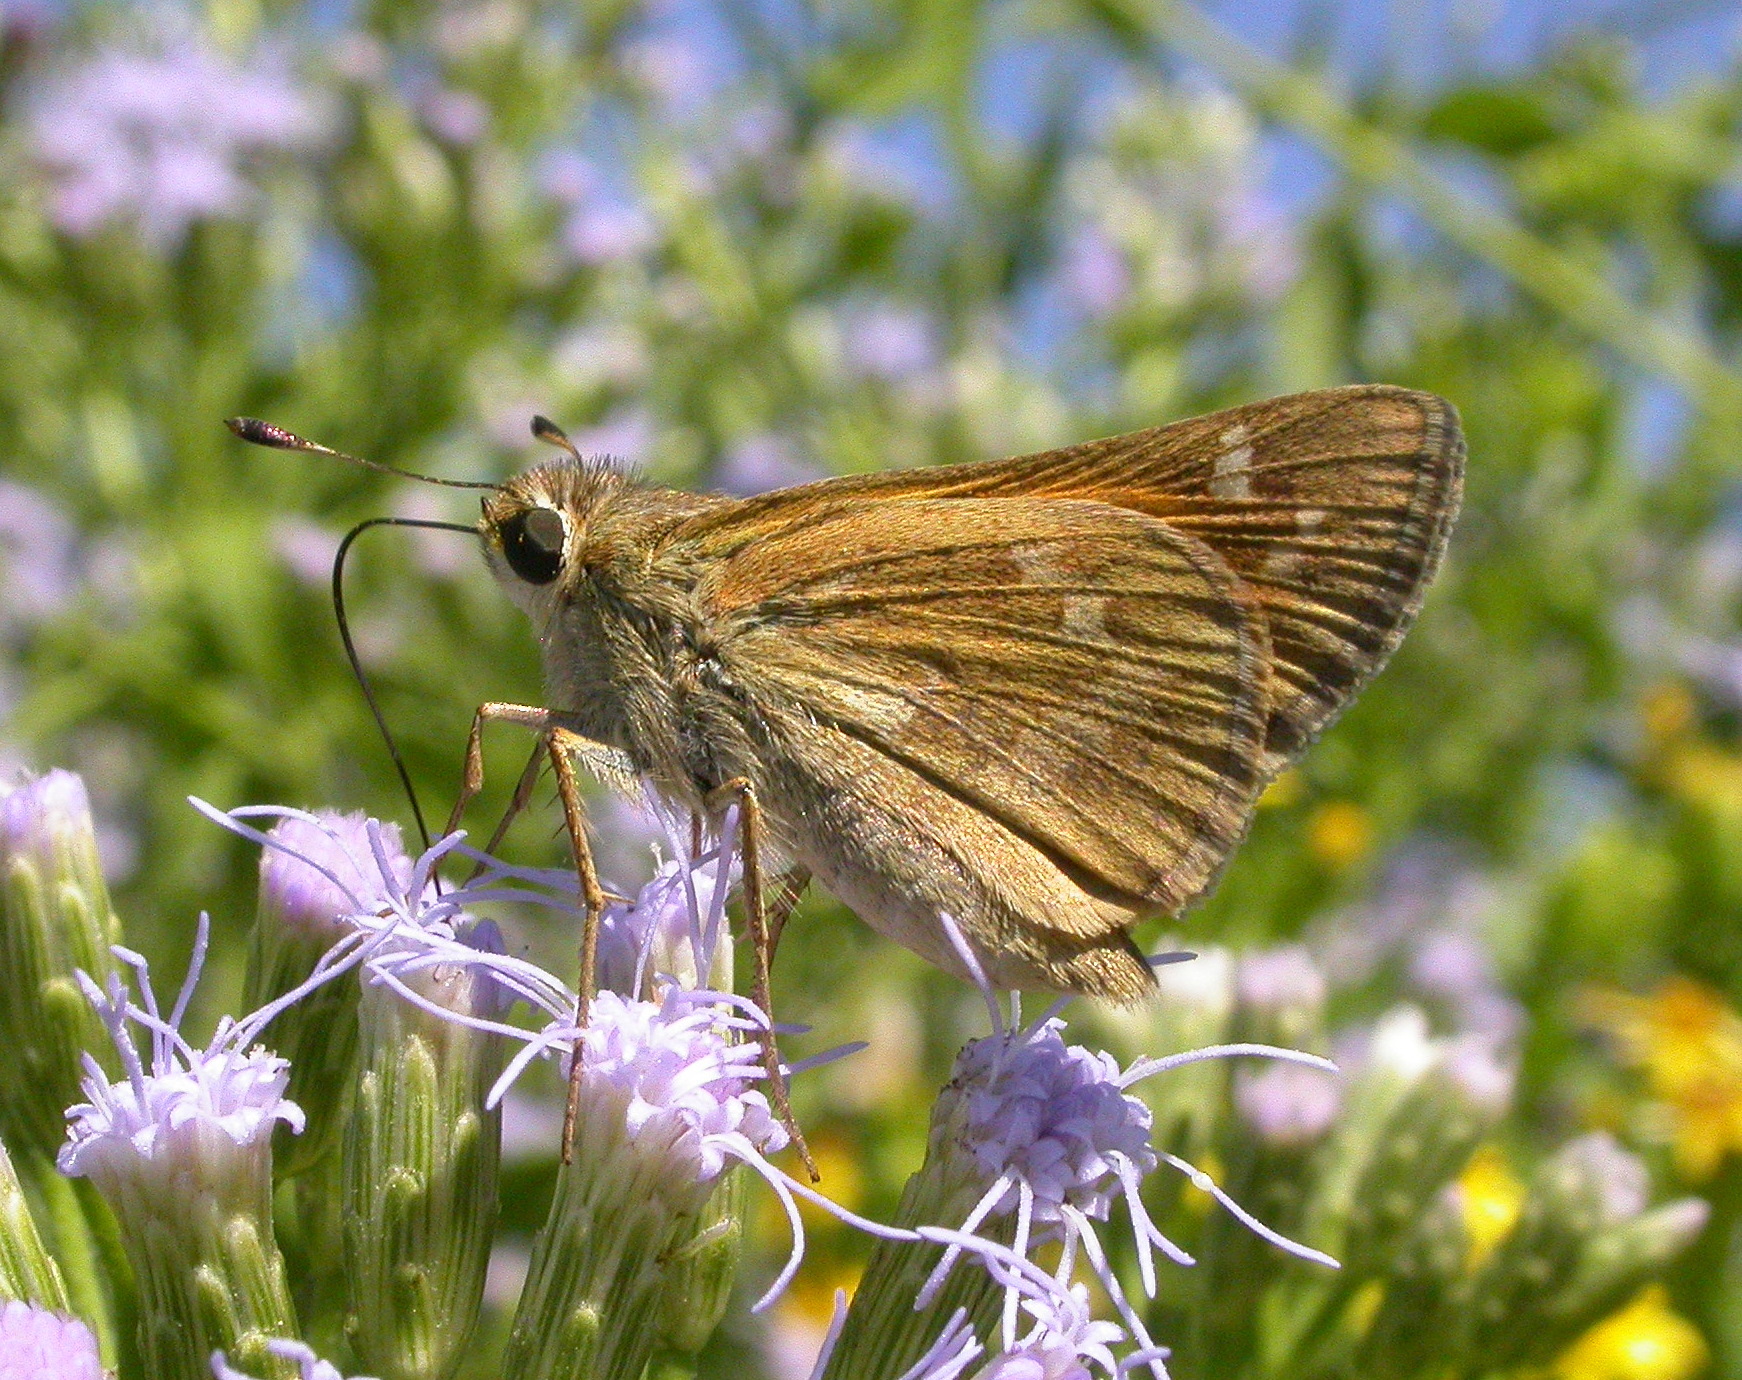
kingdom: Animalia
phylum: Arthropoda
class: Insecta
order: Lepidoptera
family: Hesperiidae
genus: Atalopedes
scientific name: Atalopedes
